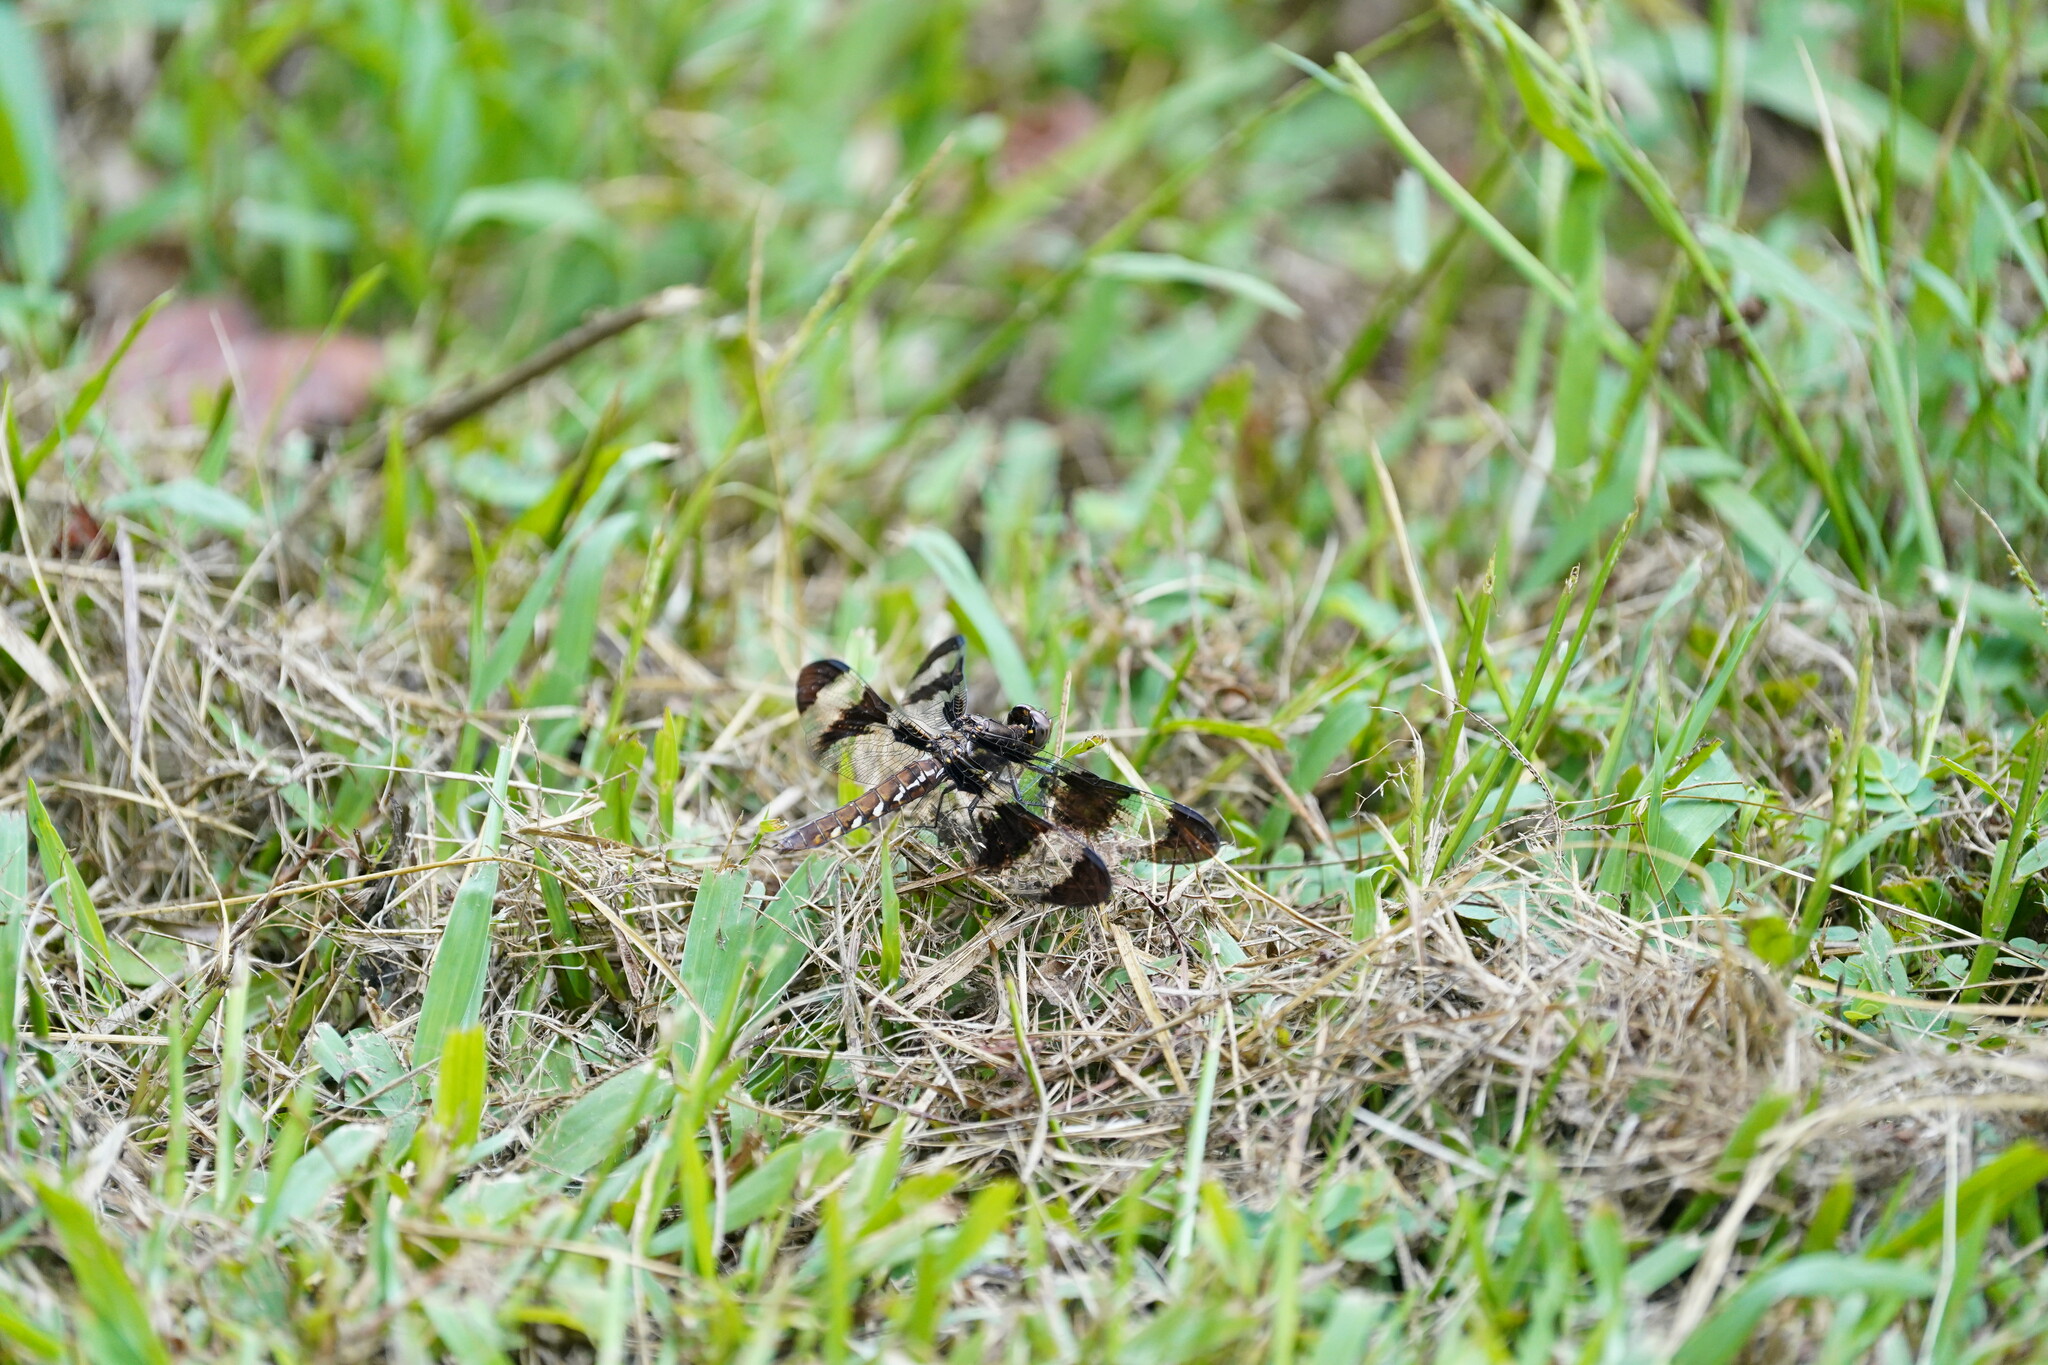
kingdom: Animalia
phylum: Arthropoda
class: Insecta
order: Odonata
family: Libellulidae
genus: Plathemis
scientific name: Plathemis lydia
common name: Common whitetail
